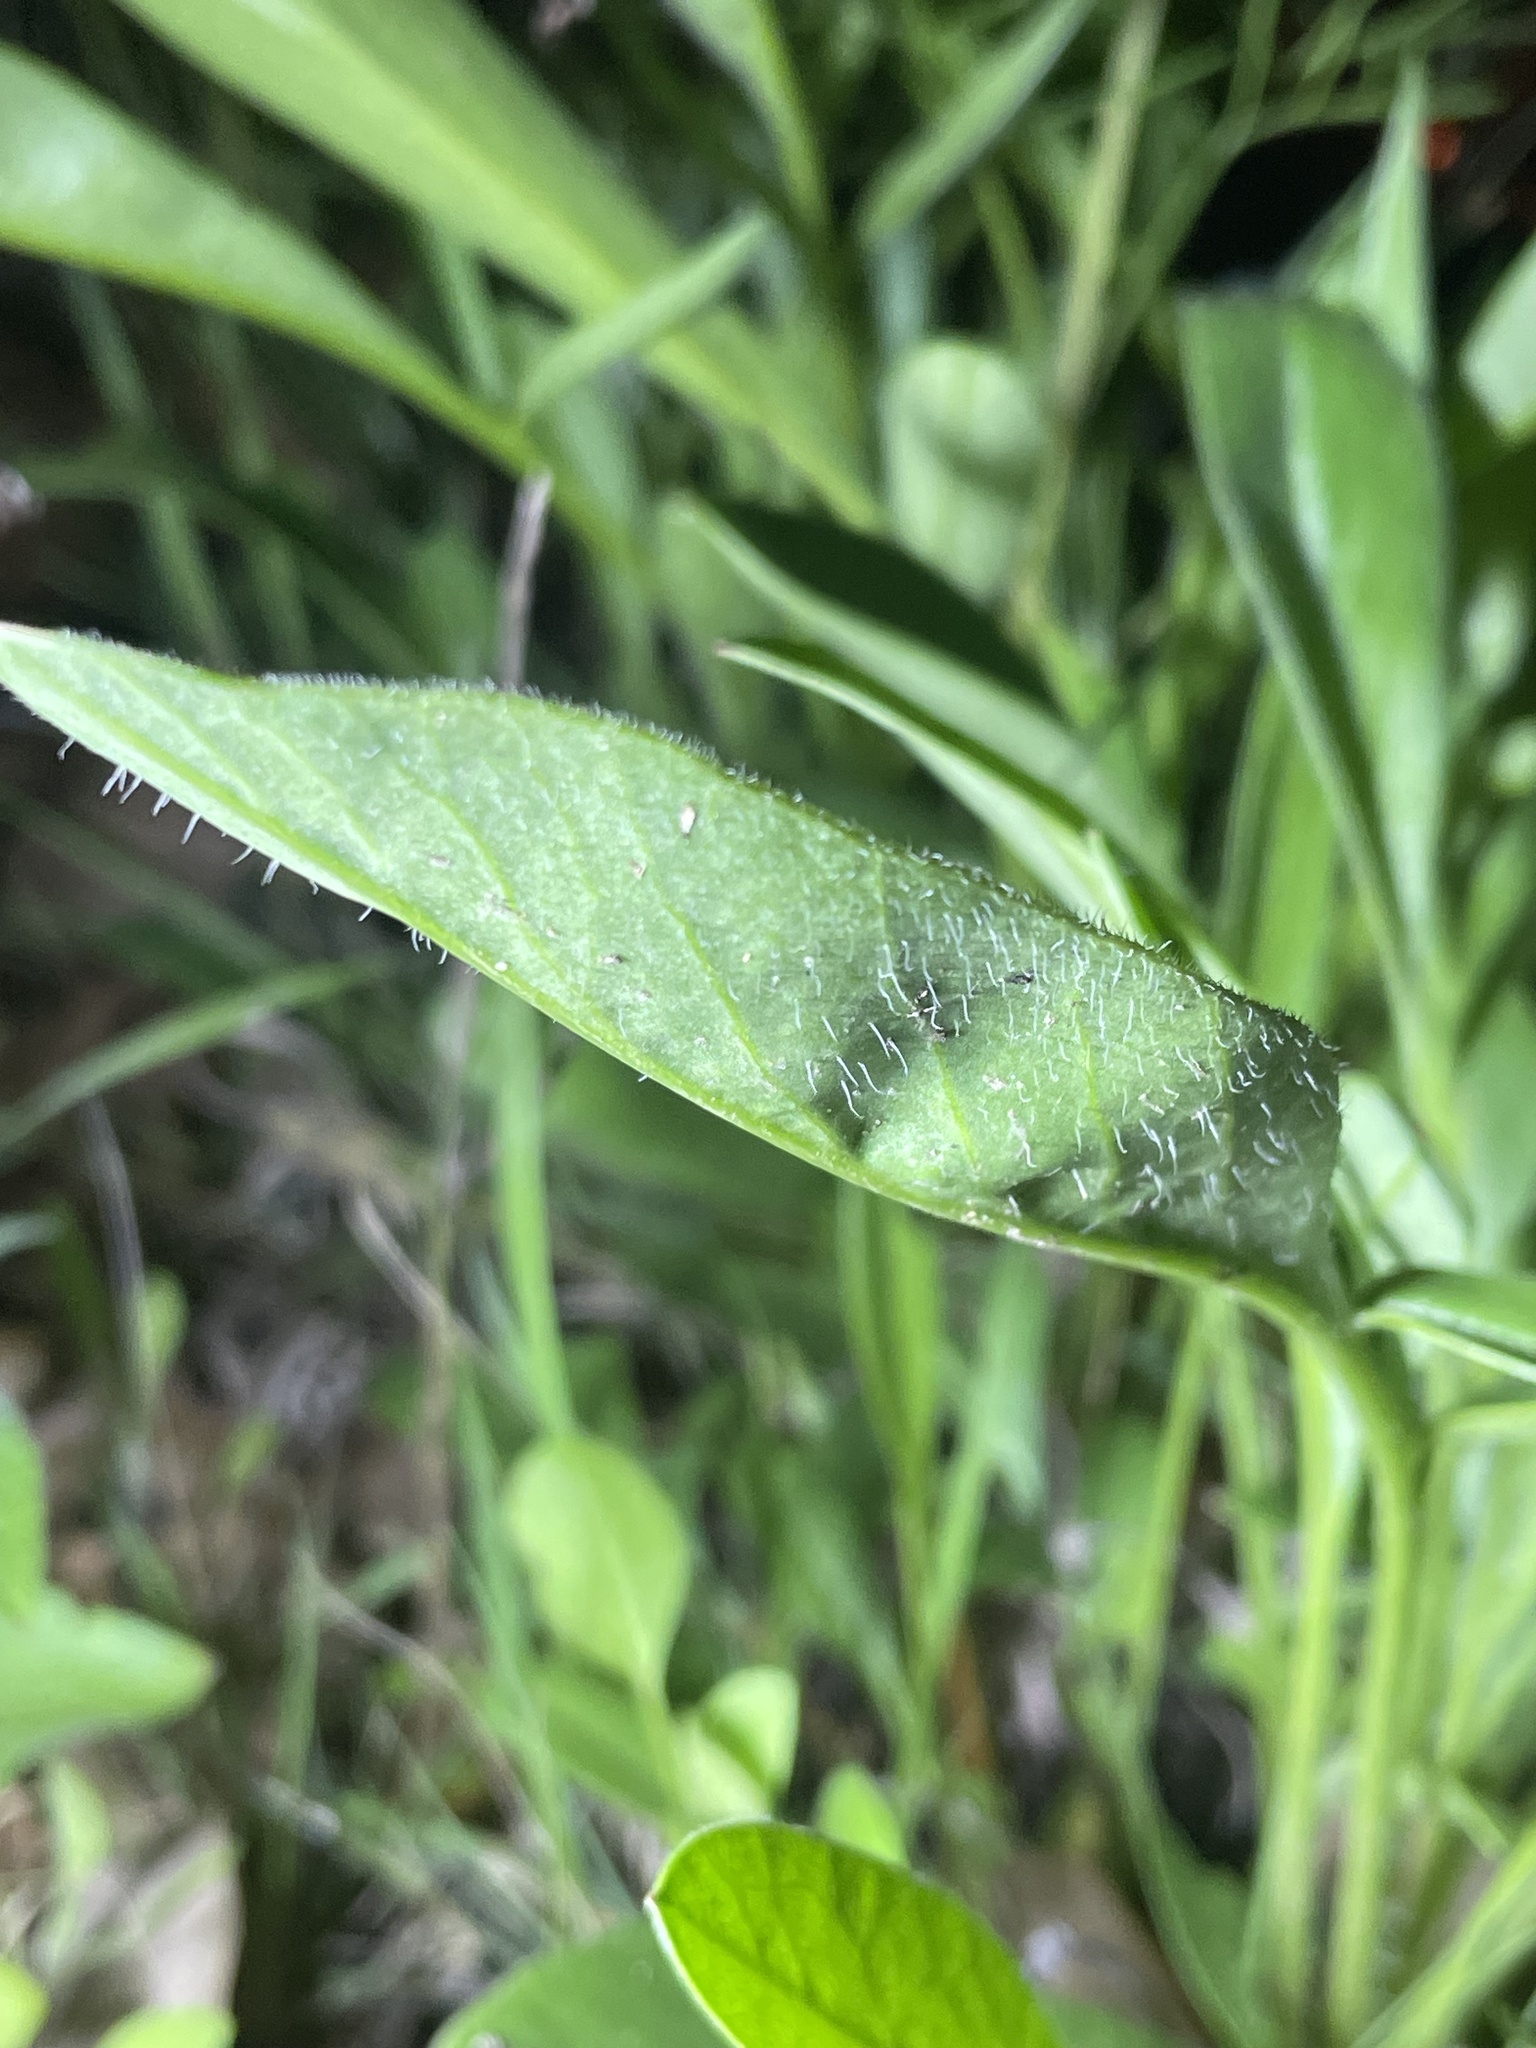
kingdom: Plantae
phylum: Tracheophyta
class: Magnoliopsida
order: Asterales
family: Asteraceae
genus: Coreopsis
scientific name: Coreopsis lanceolata
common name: Garden coreopsis
